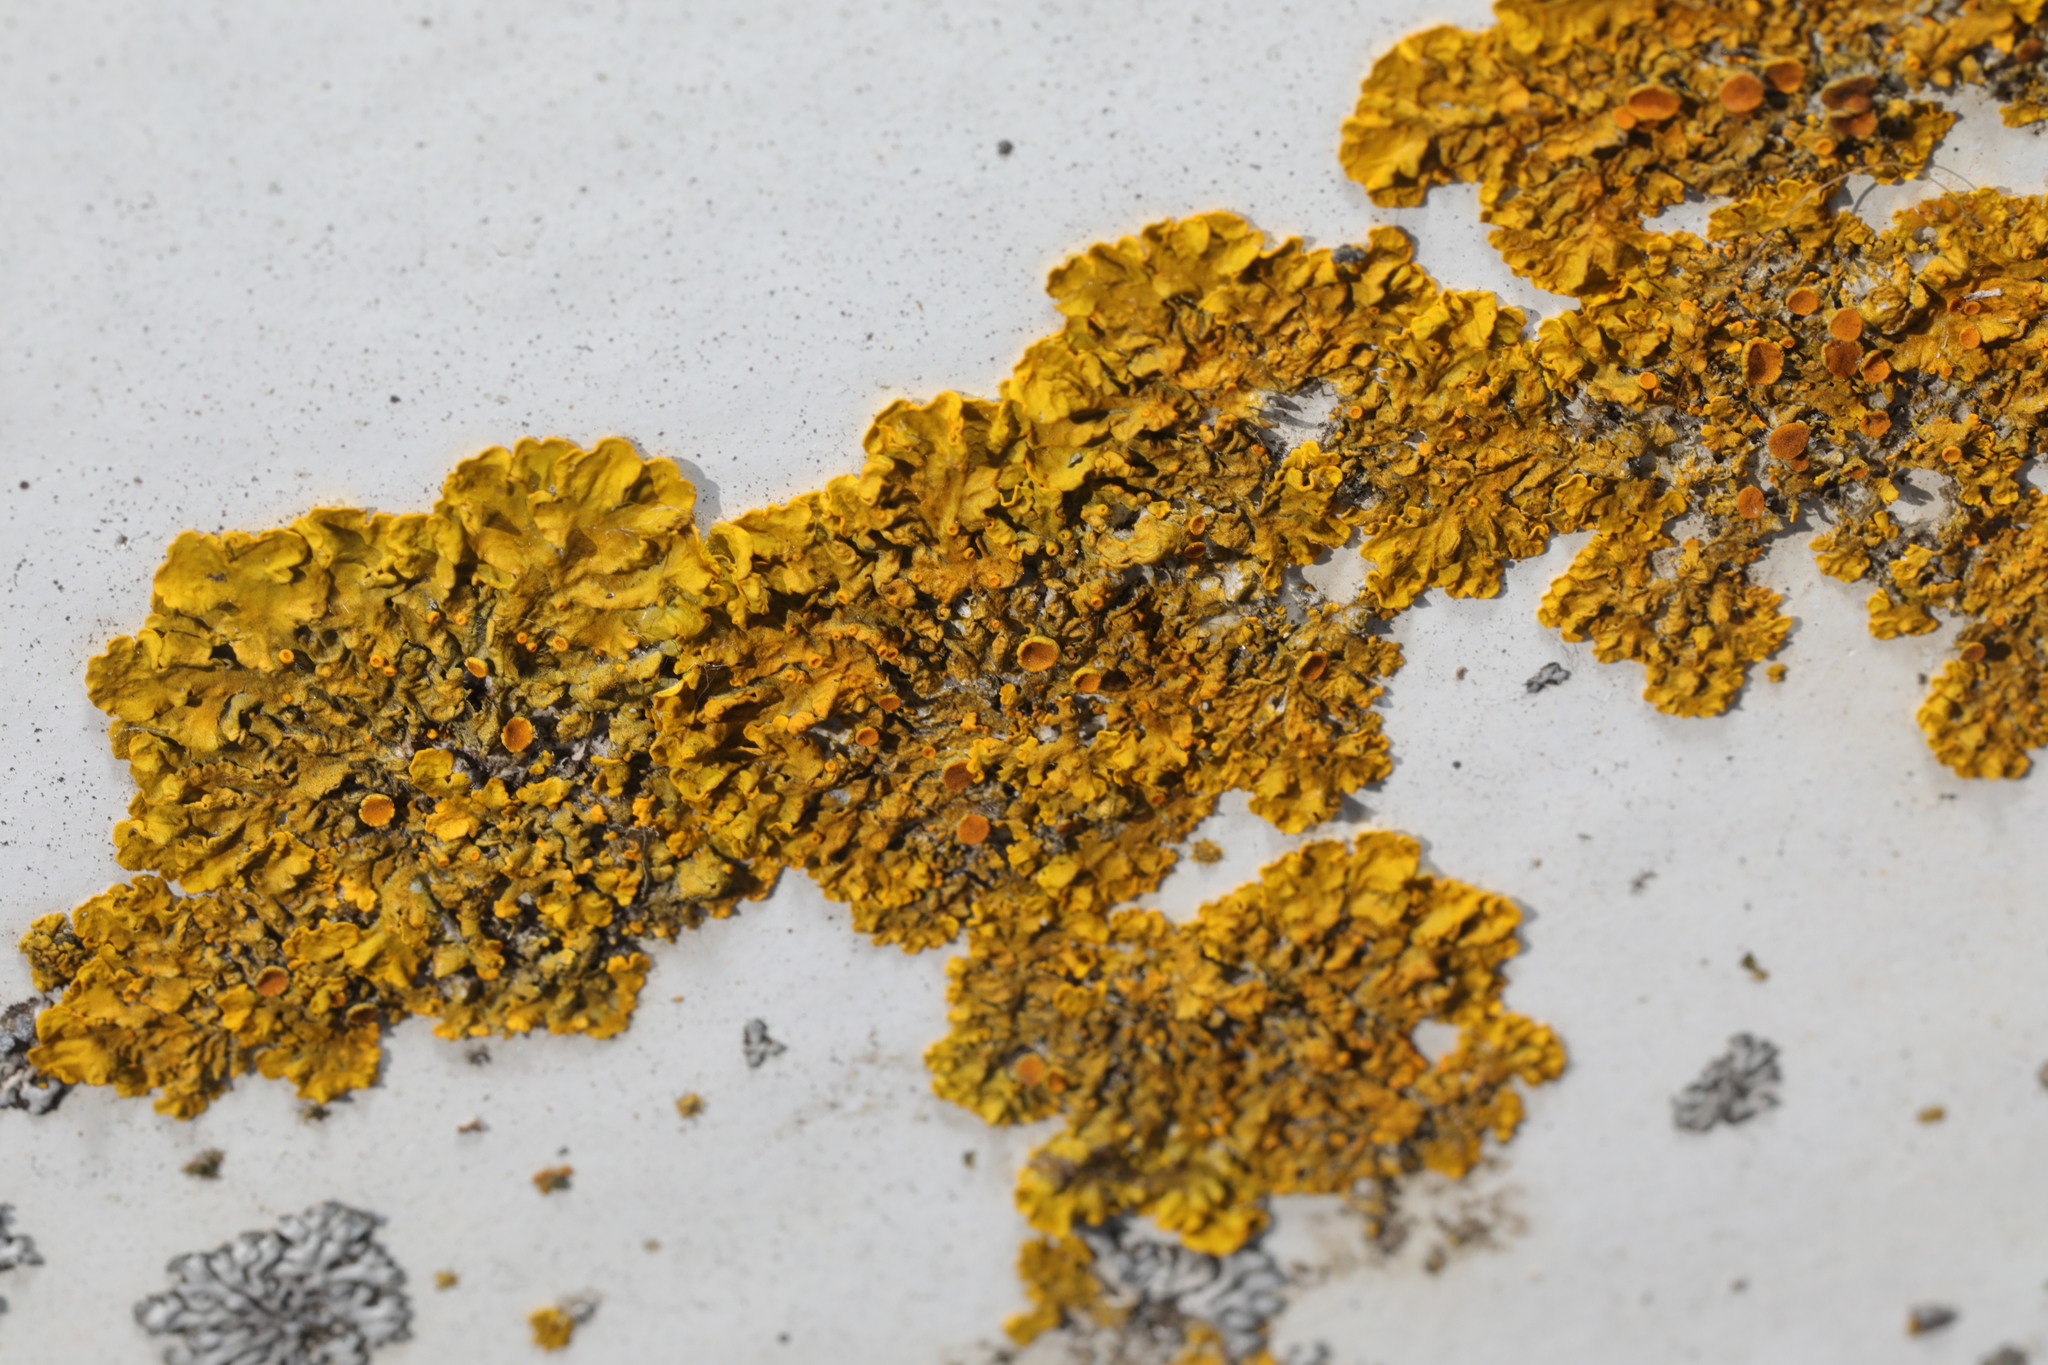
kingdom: Fungi
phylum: Ascomycota
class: Lecanoromycetes
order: Teloschistales
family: Teloschistaceae
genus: Xanthoria
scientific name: Xanthoria parietina
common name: Common orange lichen
